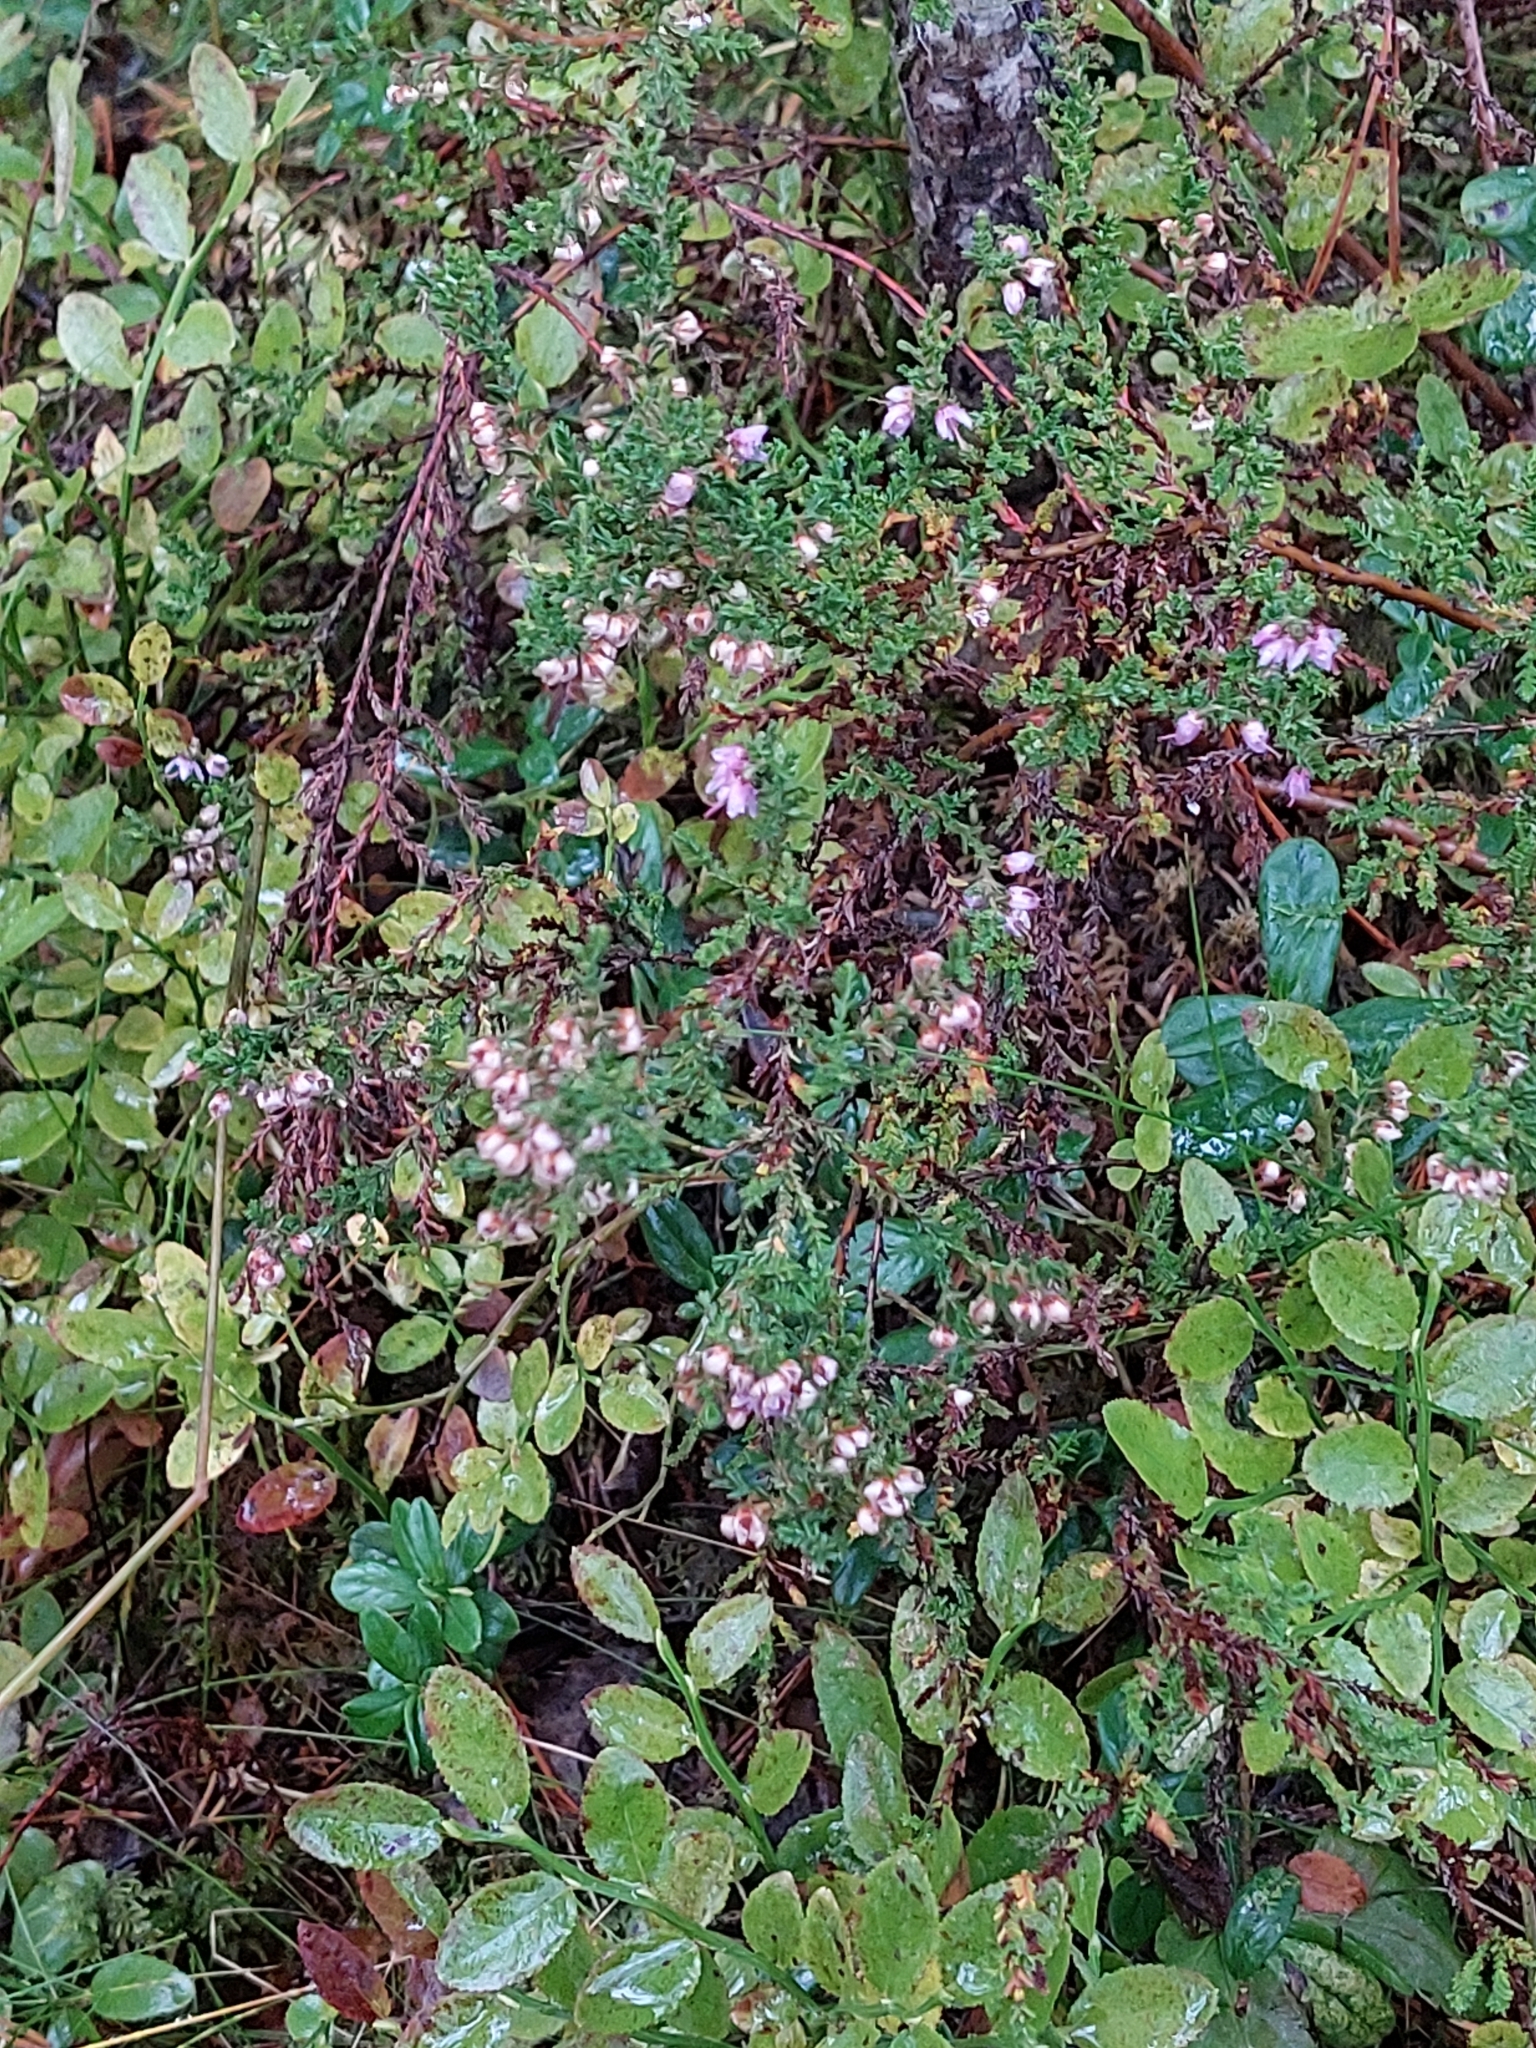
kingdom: Plantae
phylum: Tracheophyta
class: Magnoliopsida
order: Ericales
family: Ericaceae
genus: Calluna
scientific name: Calluna vulgaris
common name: Heather
